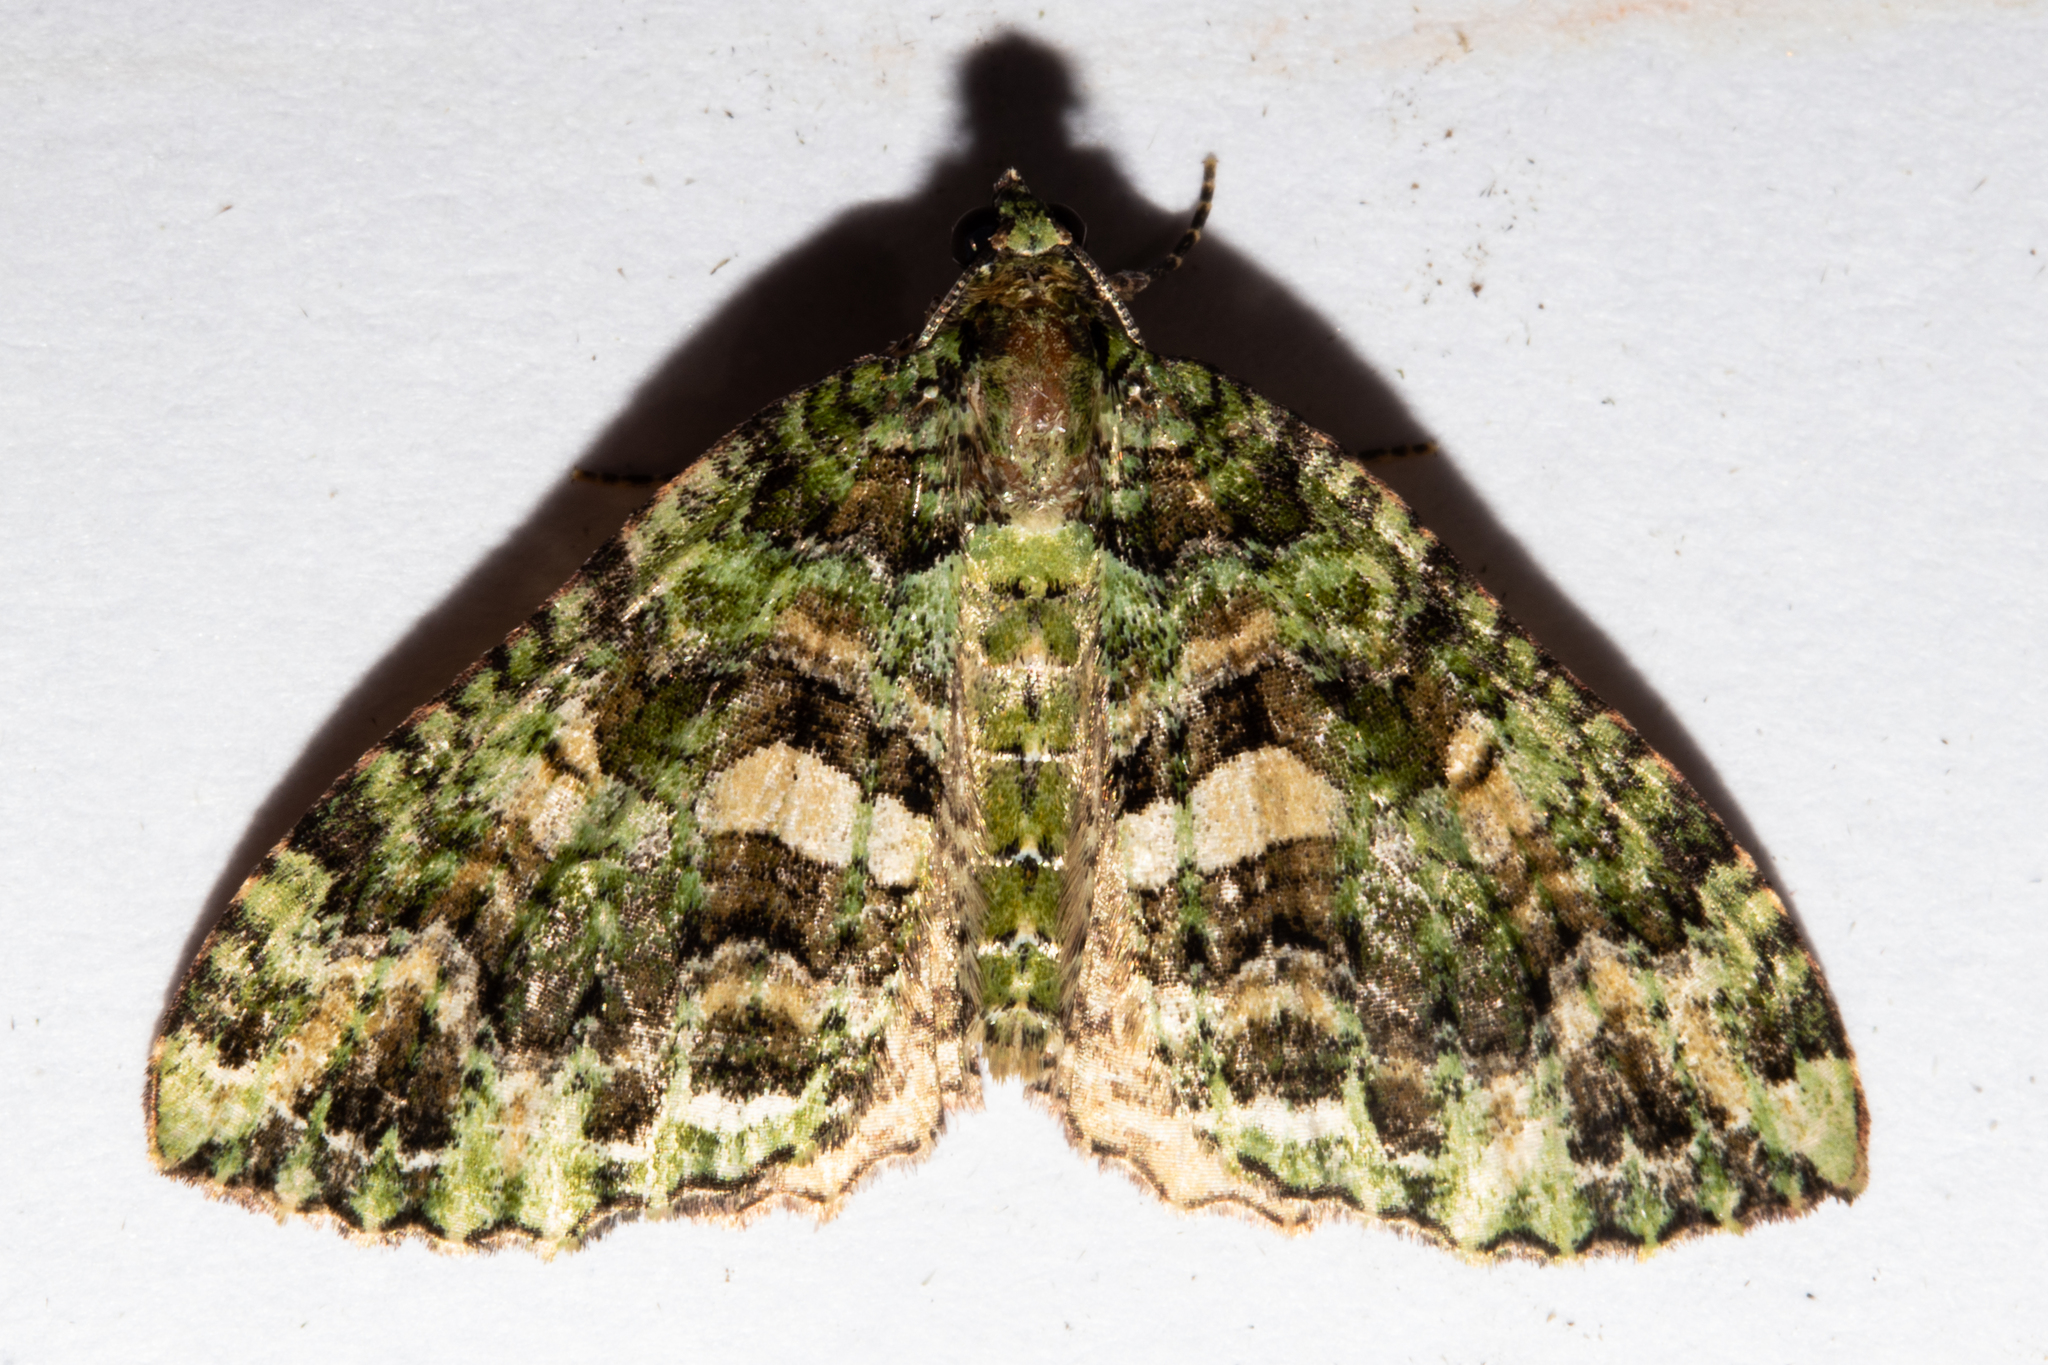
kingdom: Animalia
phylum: Arthropoda
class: Insecta
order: Lepidoptera
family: Geometridae
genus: Austrocidaria
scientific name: Austrocidaria similata
